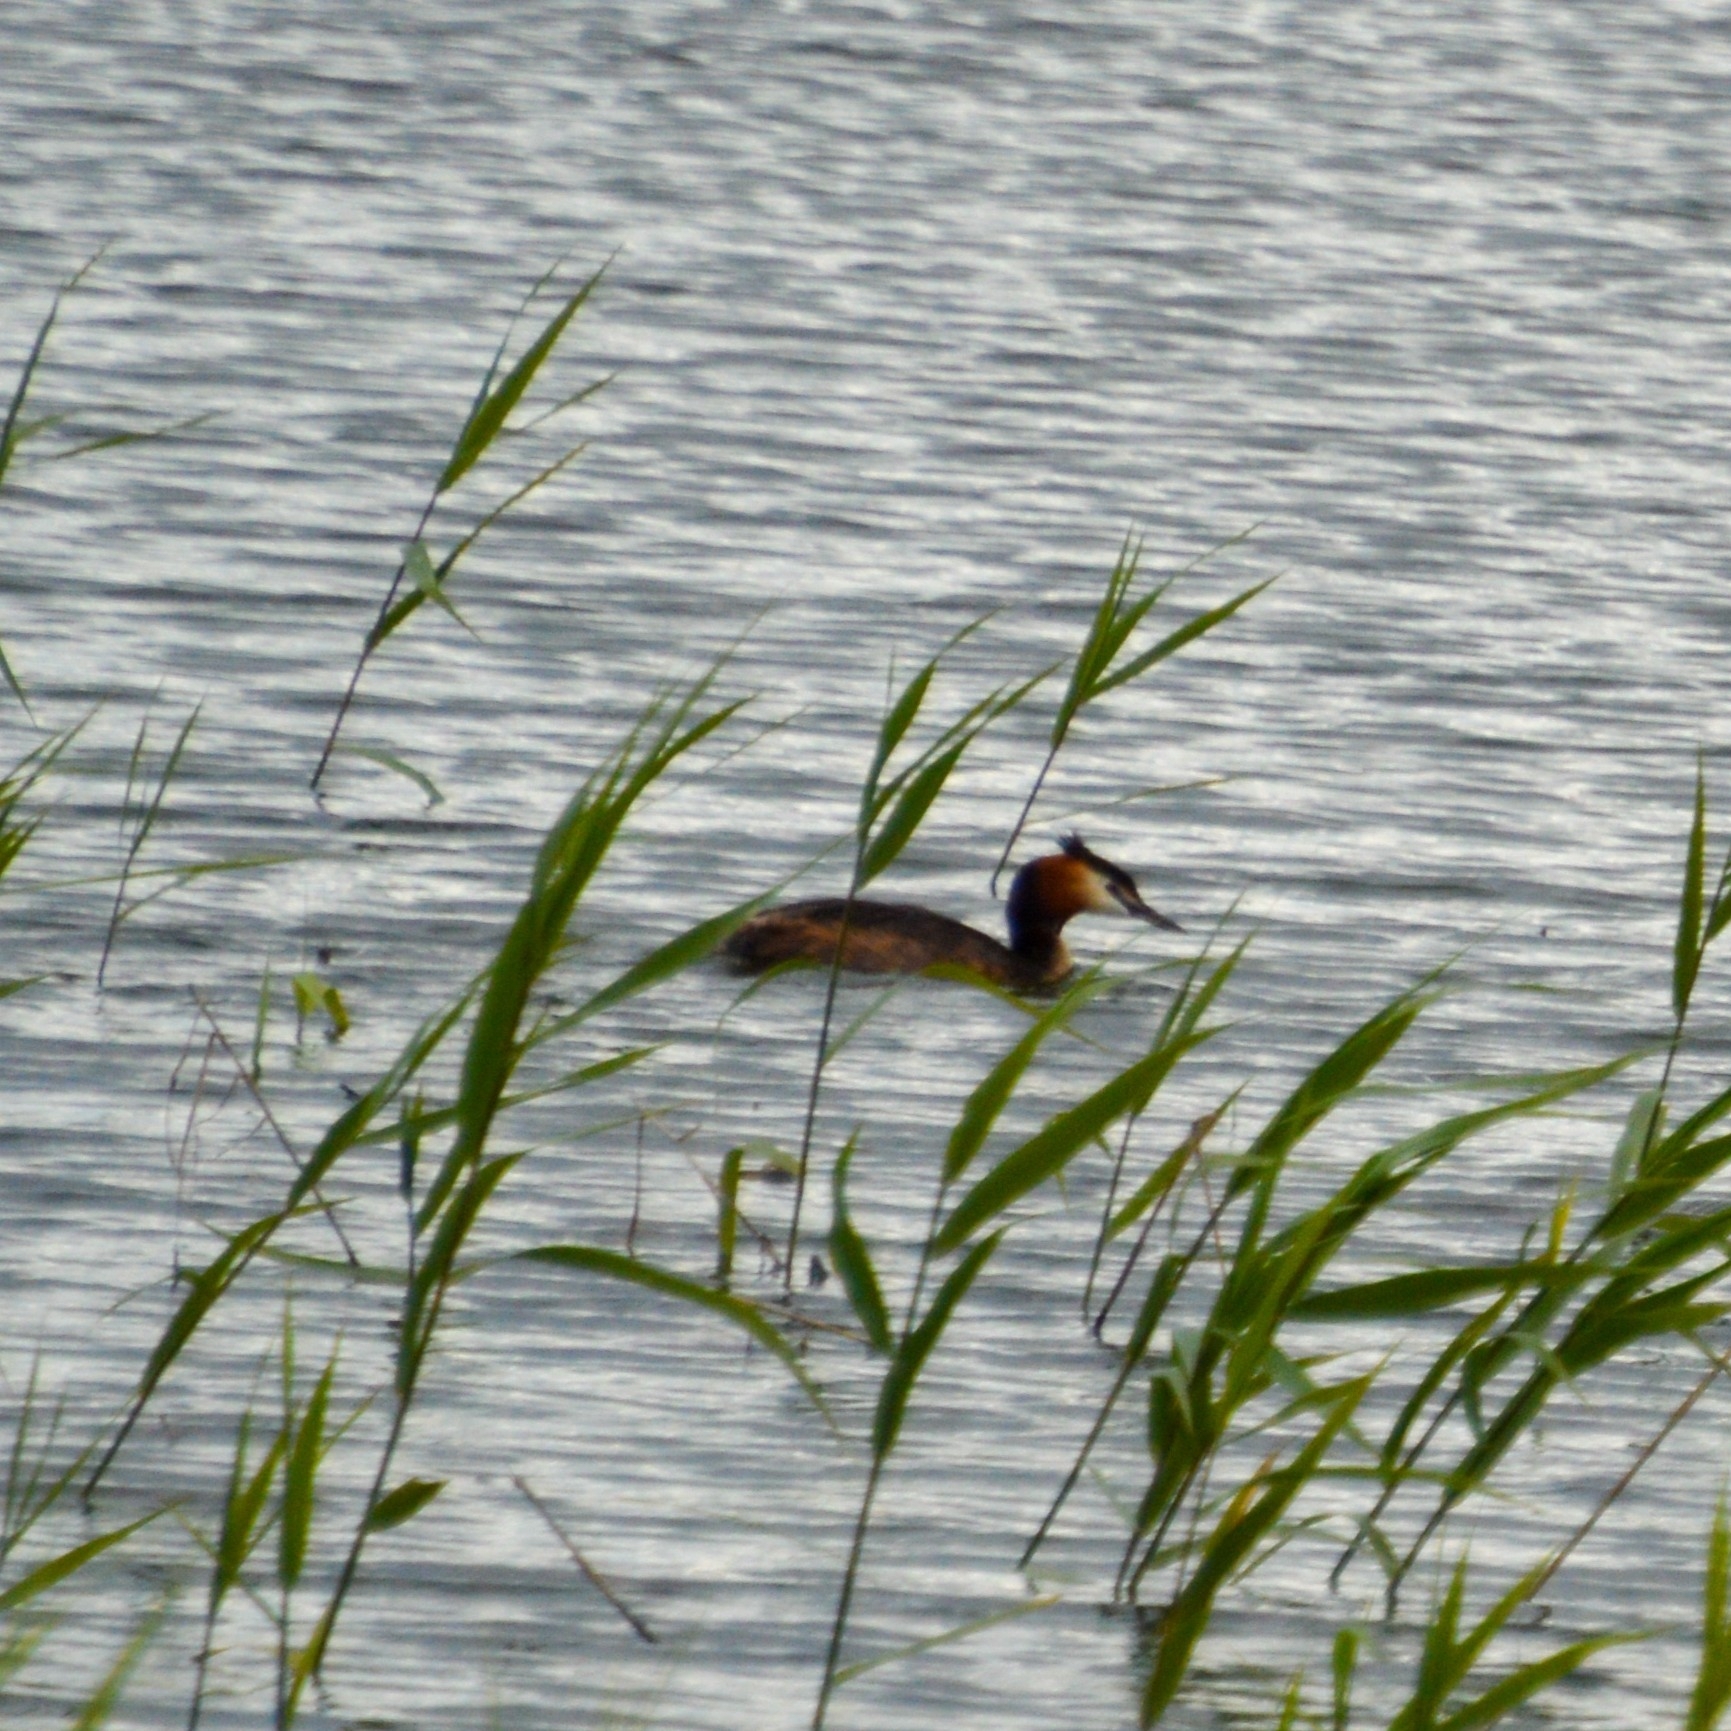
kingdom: Animalia
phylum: Chordata
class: Aves
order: Podicipediformes
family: Podicipedidae
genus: Podiceps
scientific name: Podiceps cristatus
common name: Great crested grebe
